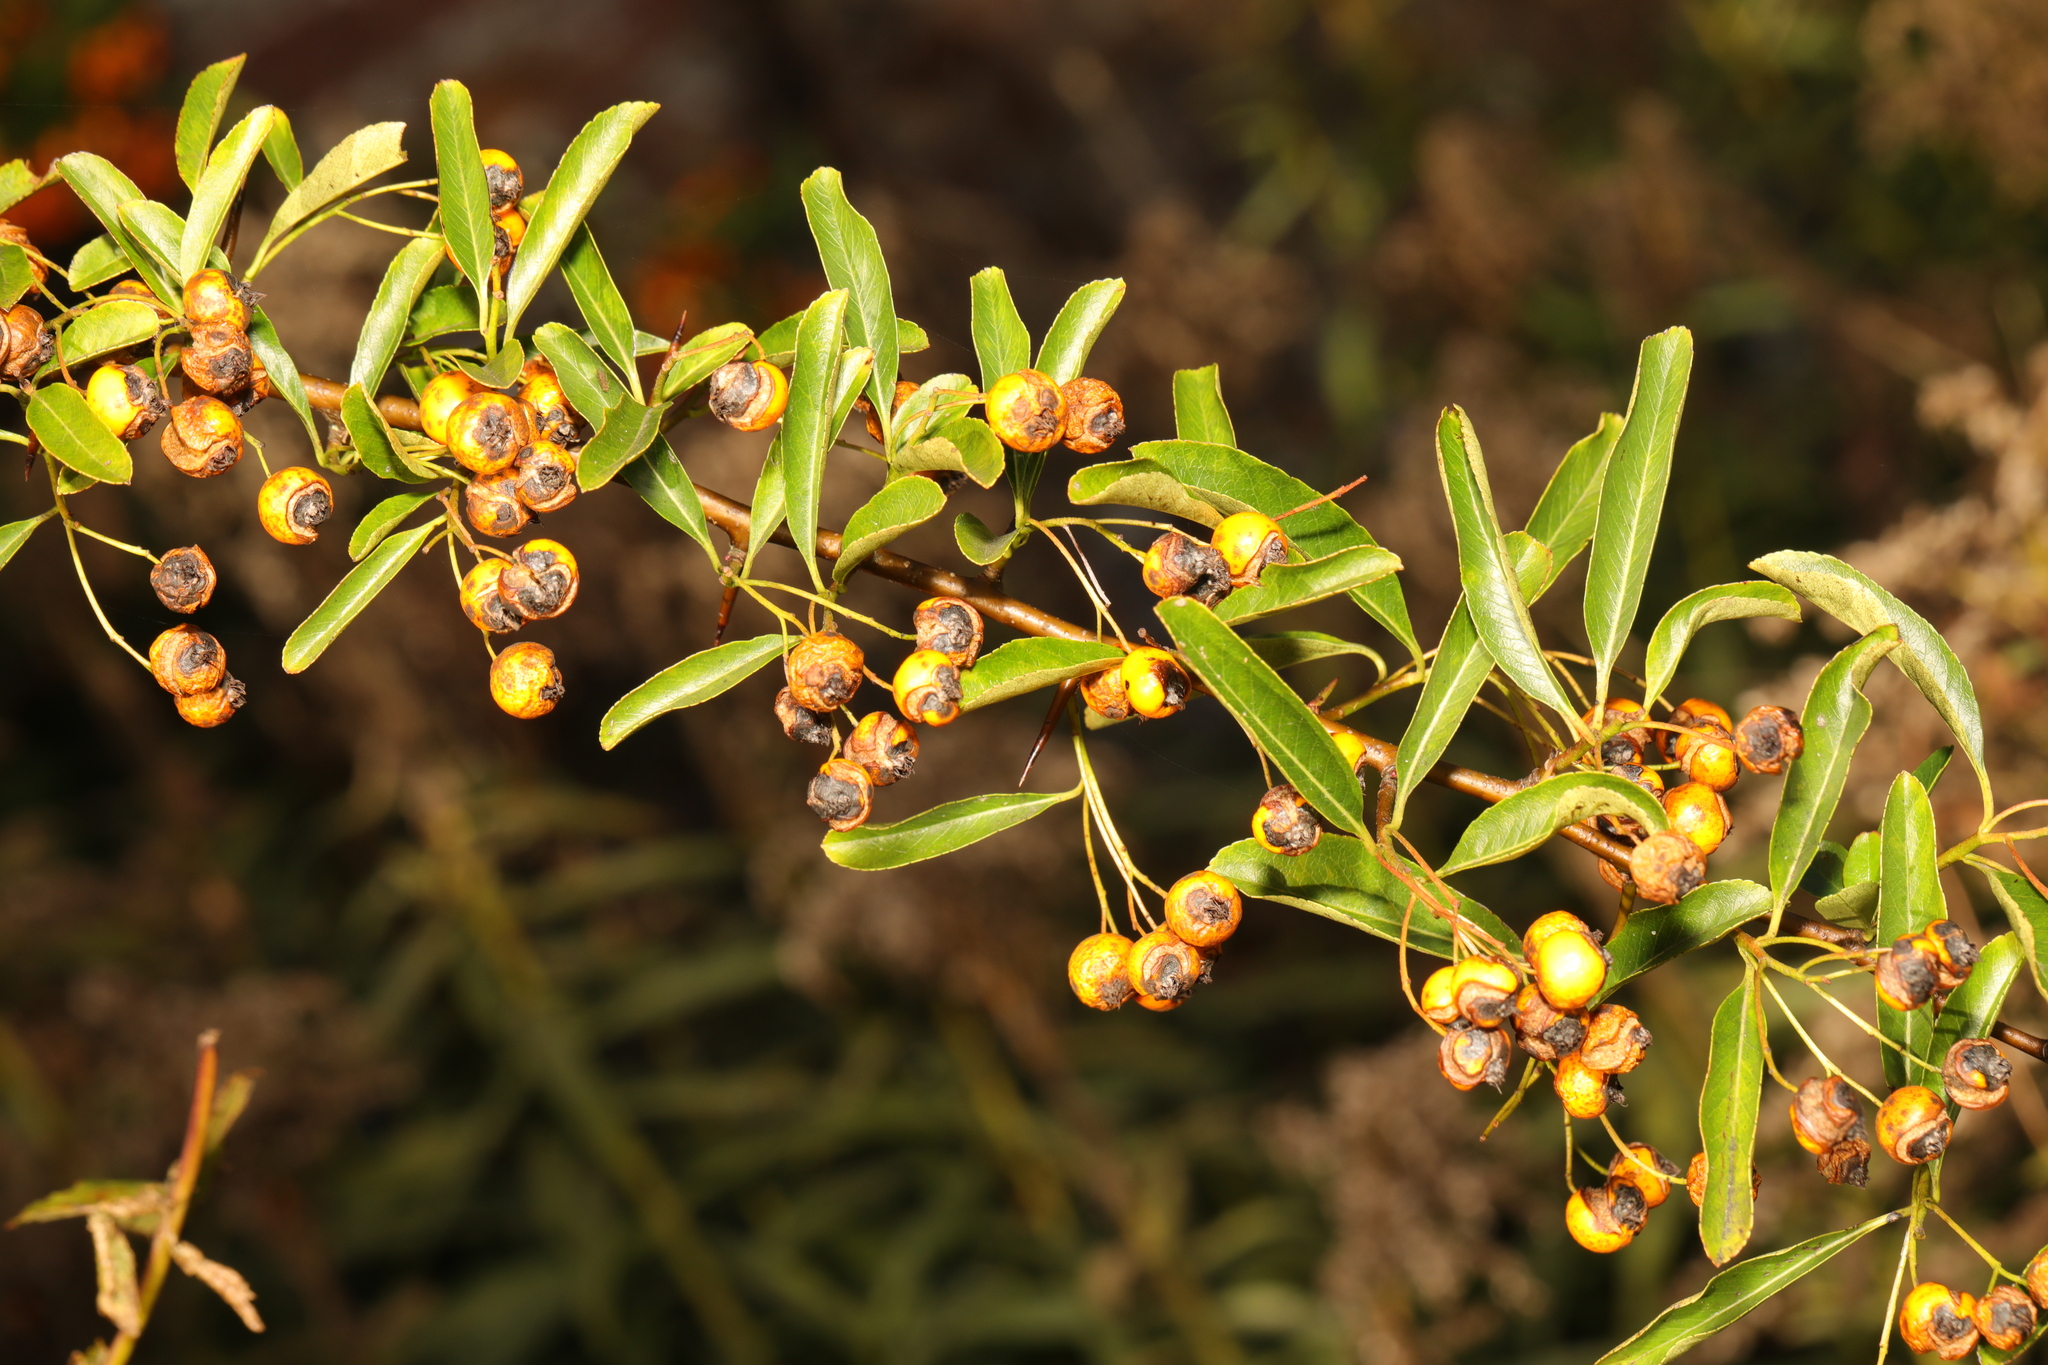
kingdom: Plantae
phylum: Tracheophyta
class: Magnoliopsida
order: Rosales
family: Rosaceae
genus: Pyracantha
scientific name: Pyracantha coccinea
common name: Firethorn
